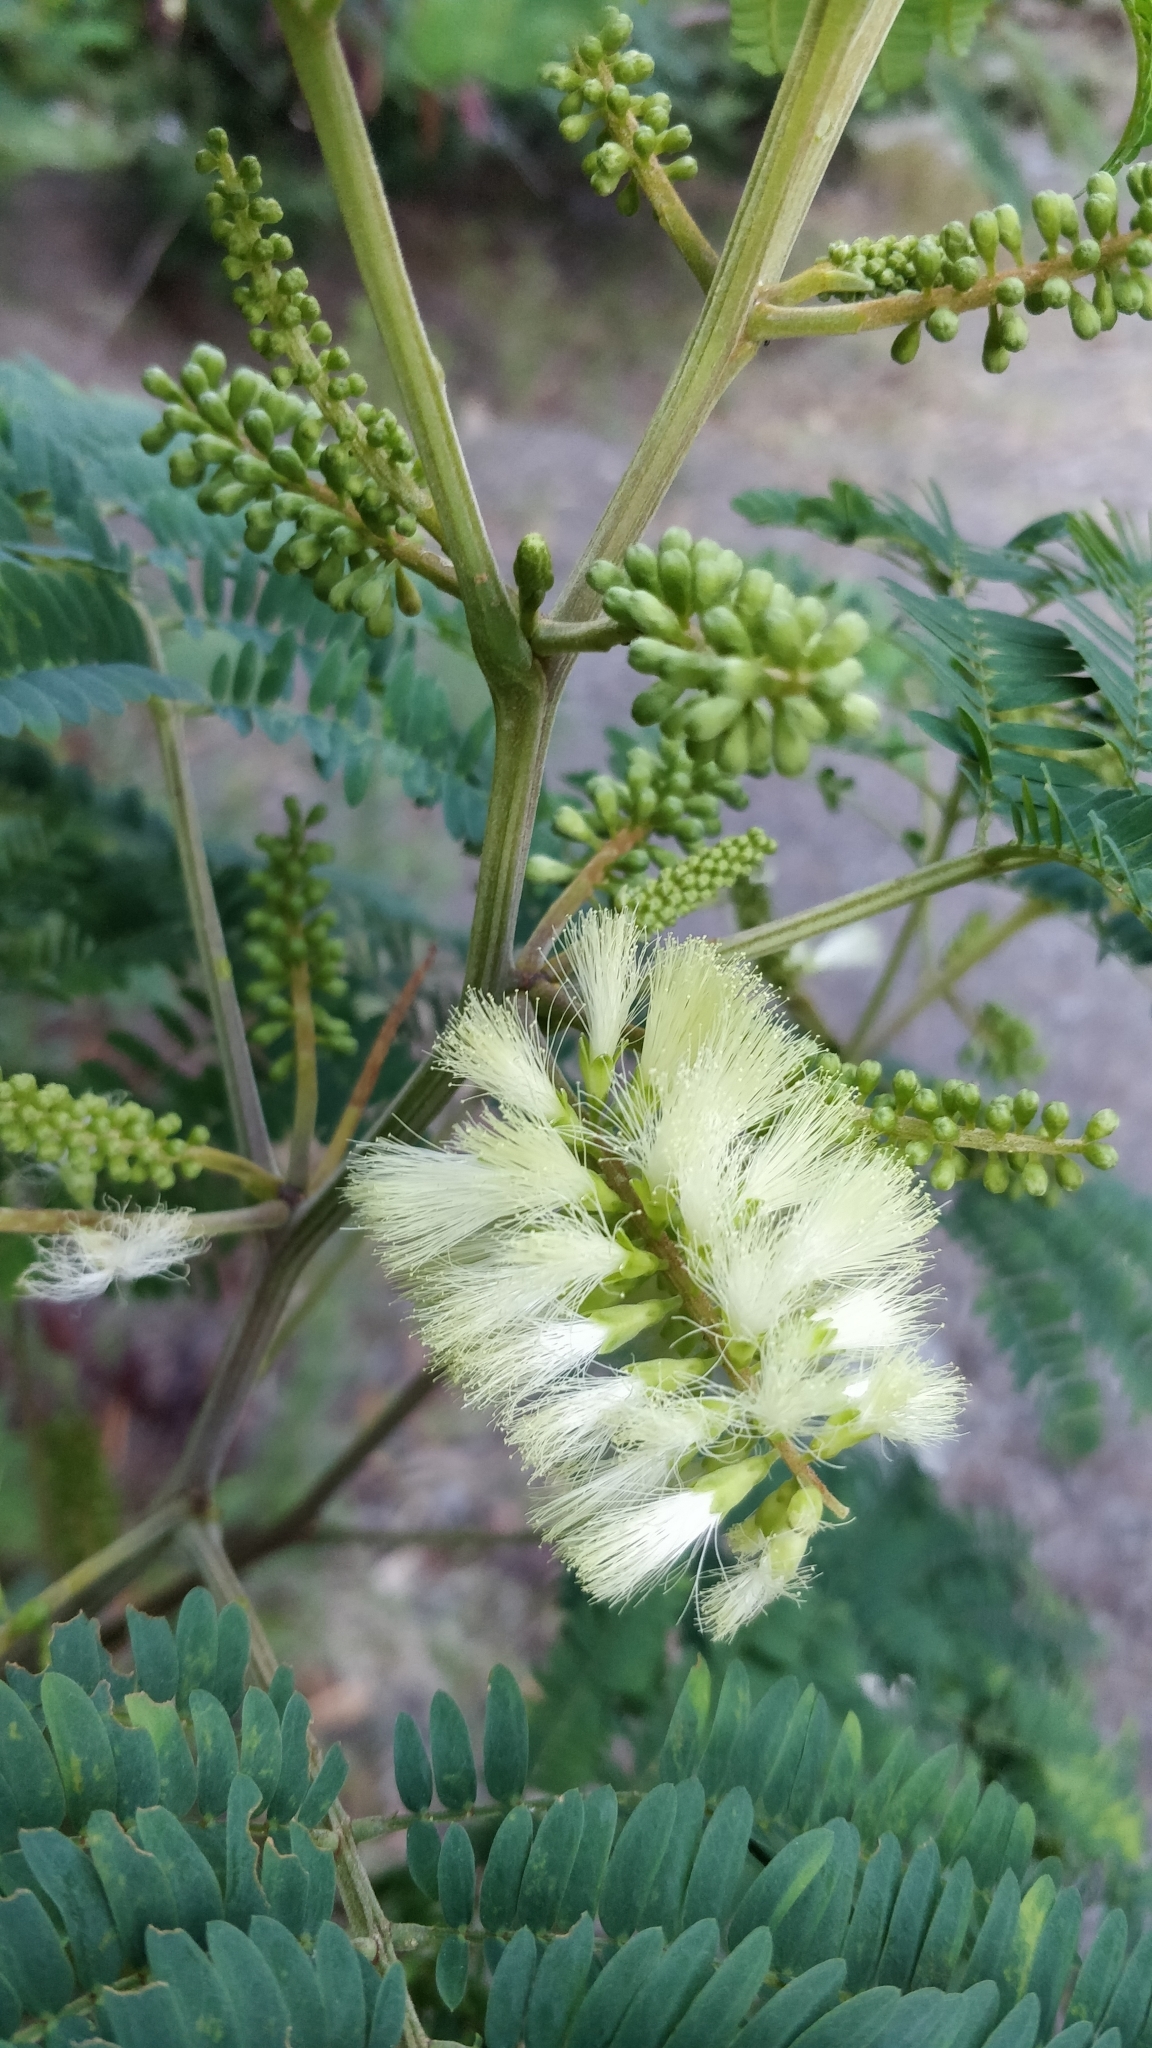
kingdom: Plantae
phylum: Tracheophyta
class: Magnoliopsida
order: Fabales
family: Fabaceae
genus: Paraserianthes
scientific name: Paraserianthes lophantha
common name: Plume albizia
